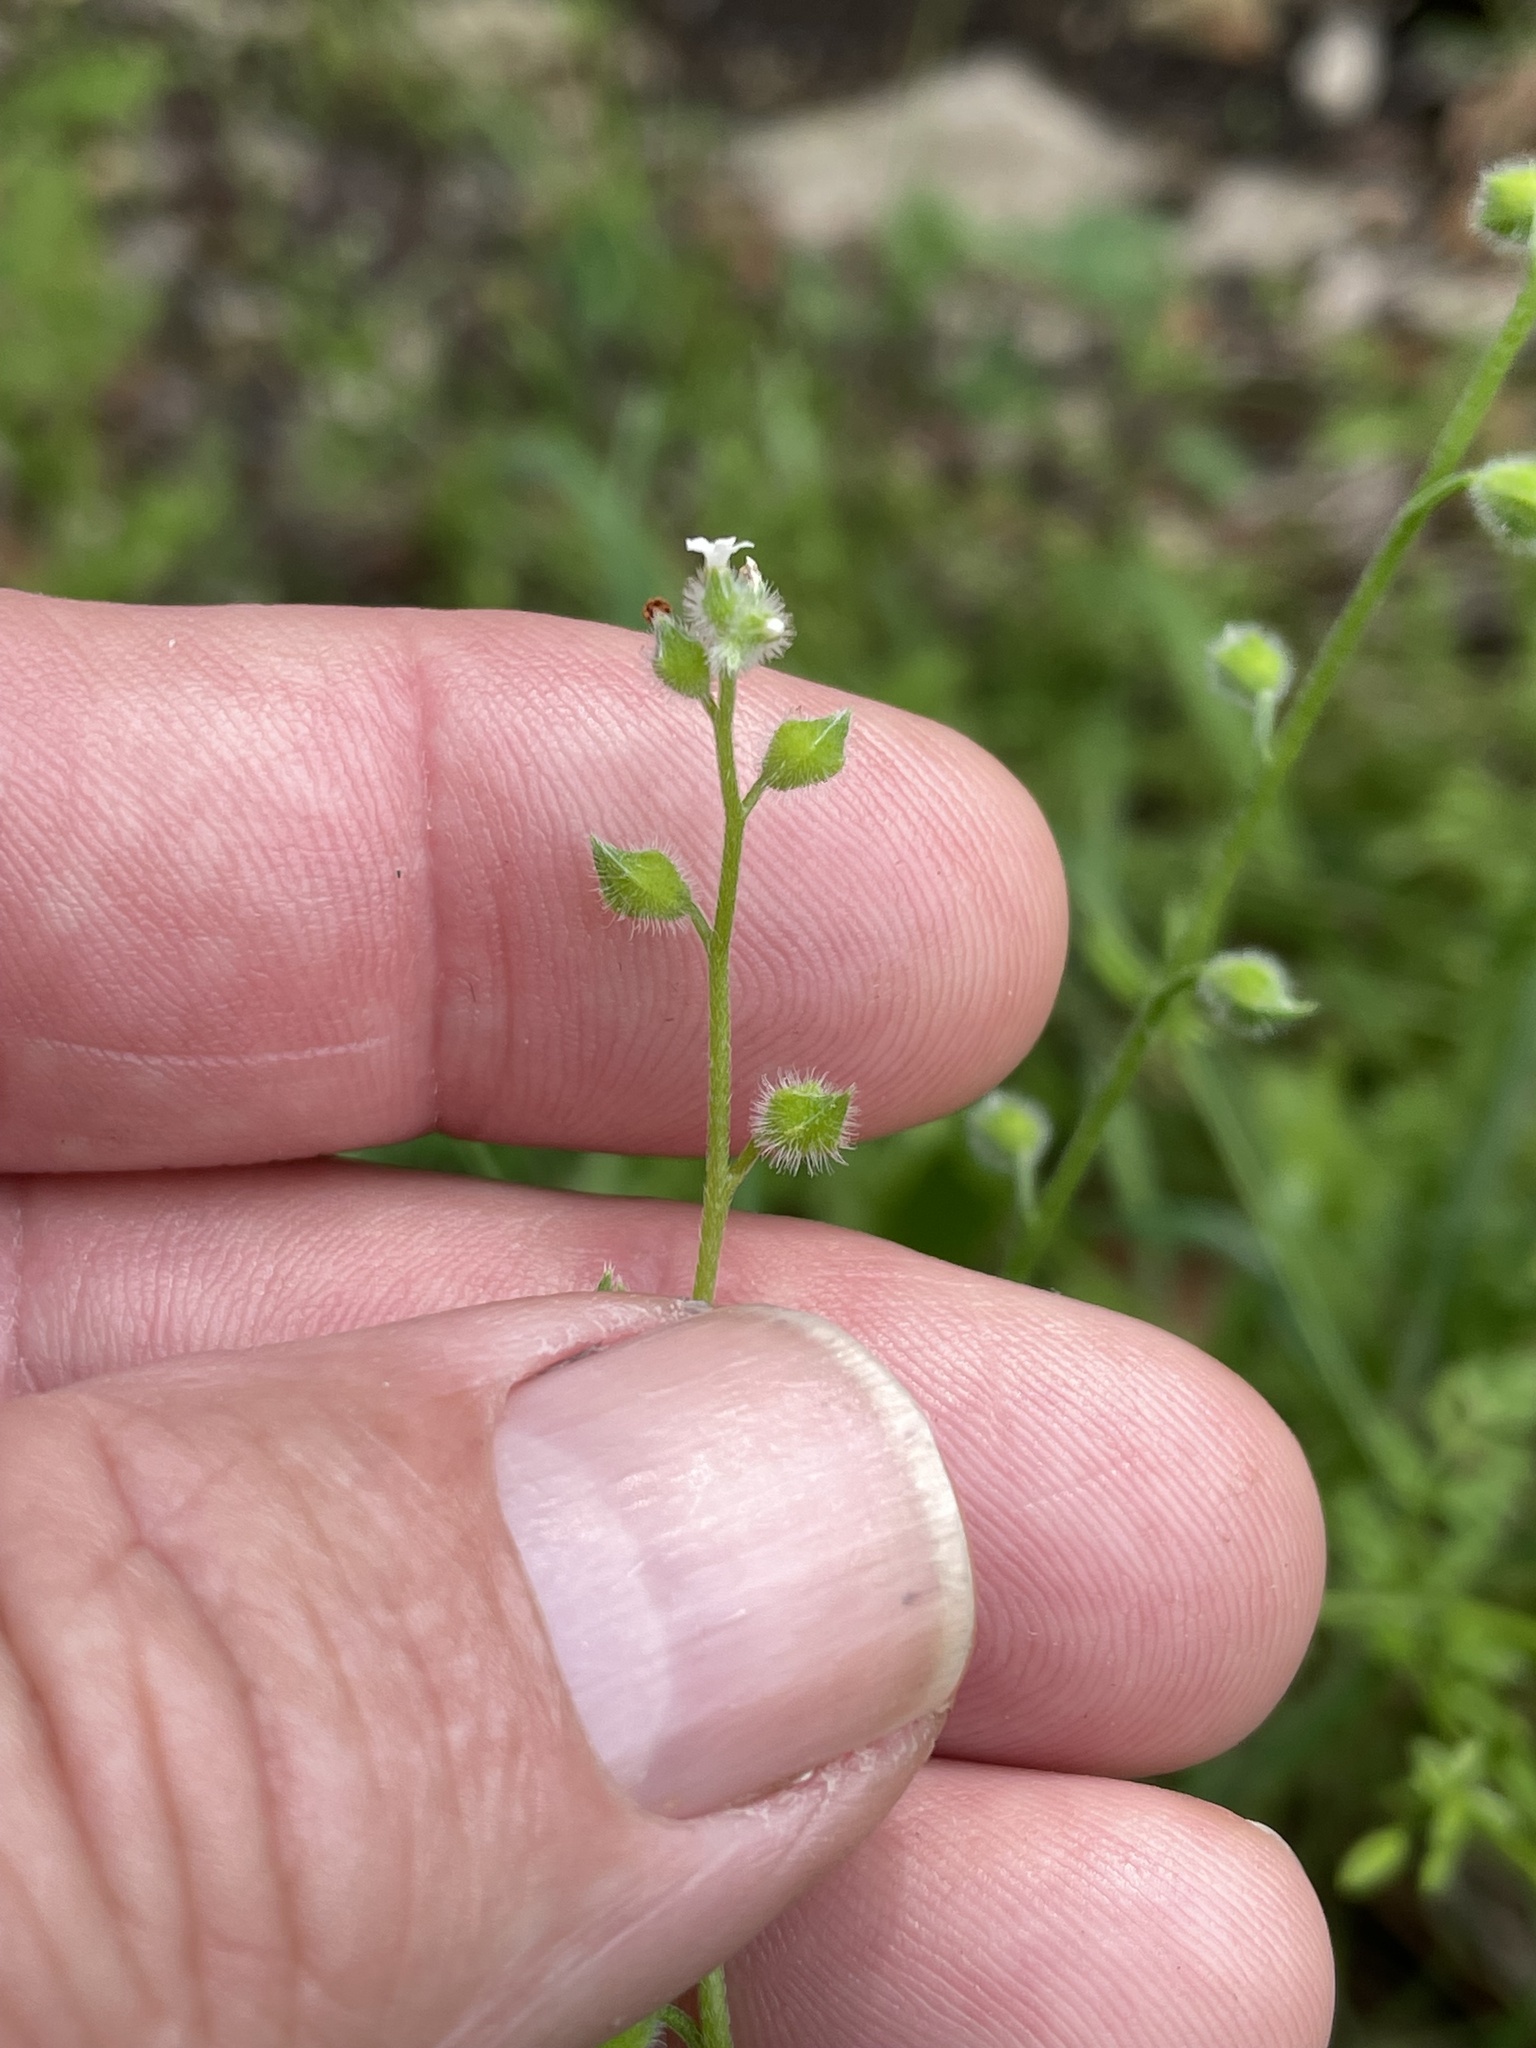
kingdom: Plantae
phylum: Tracheophyta
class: Magnoliopsida
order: Boraginales
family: Boraginaceae
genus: Myosotis
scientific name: Myosotis macrosperma
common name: Large-seed forget-me-not
